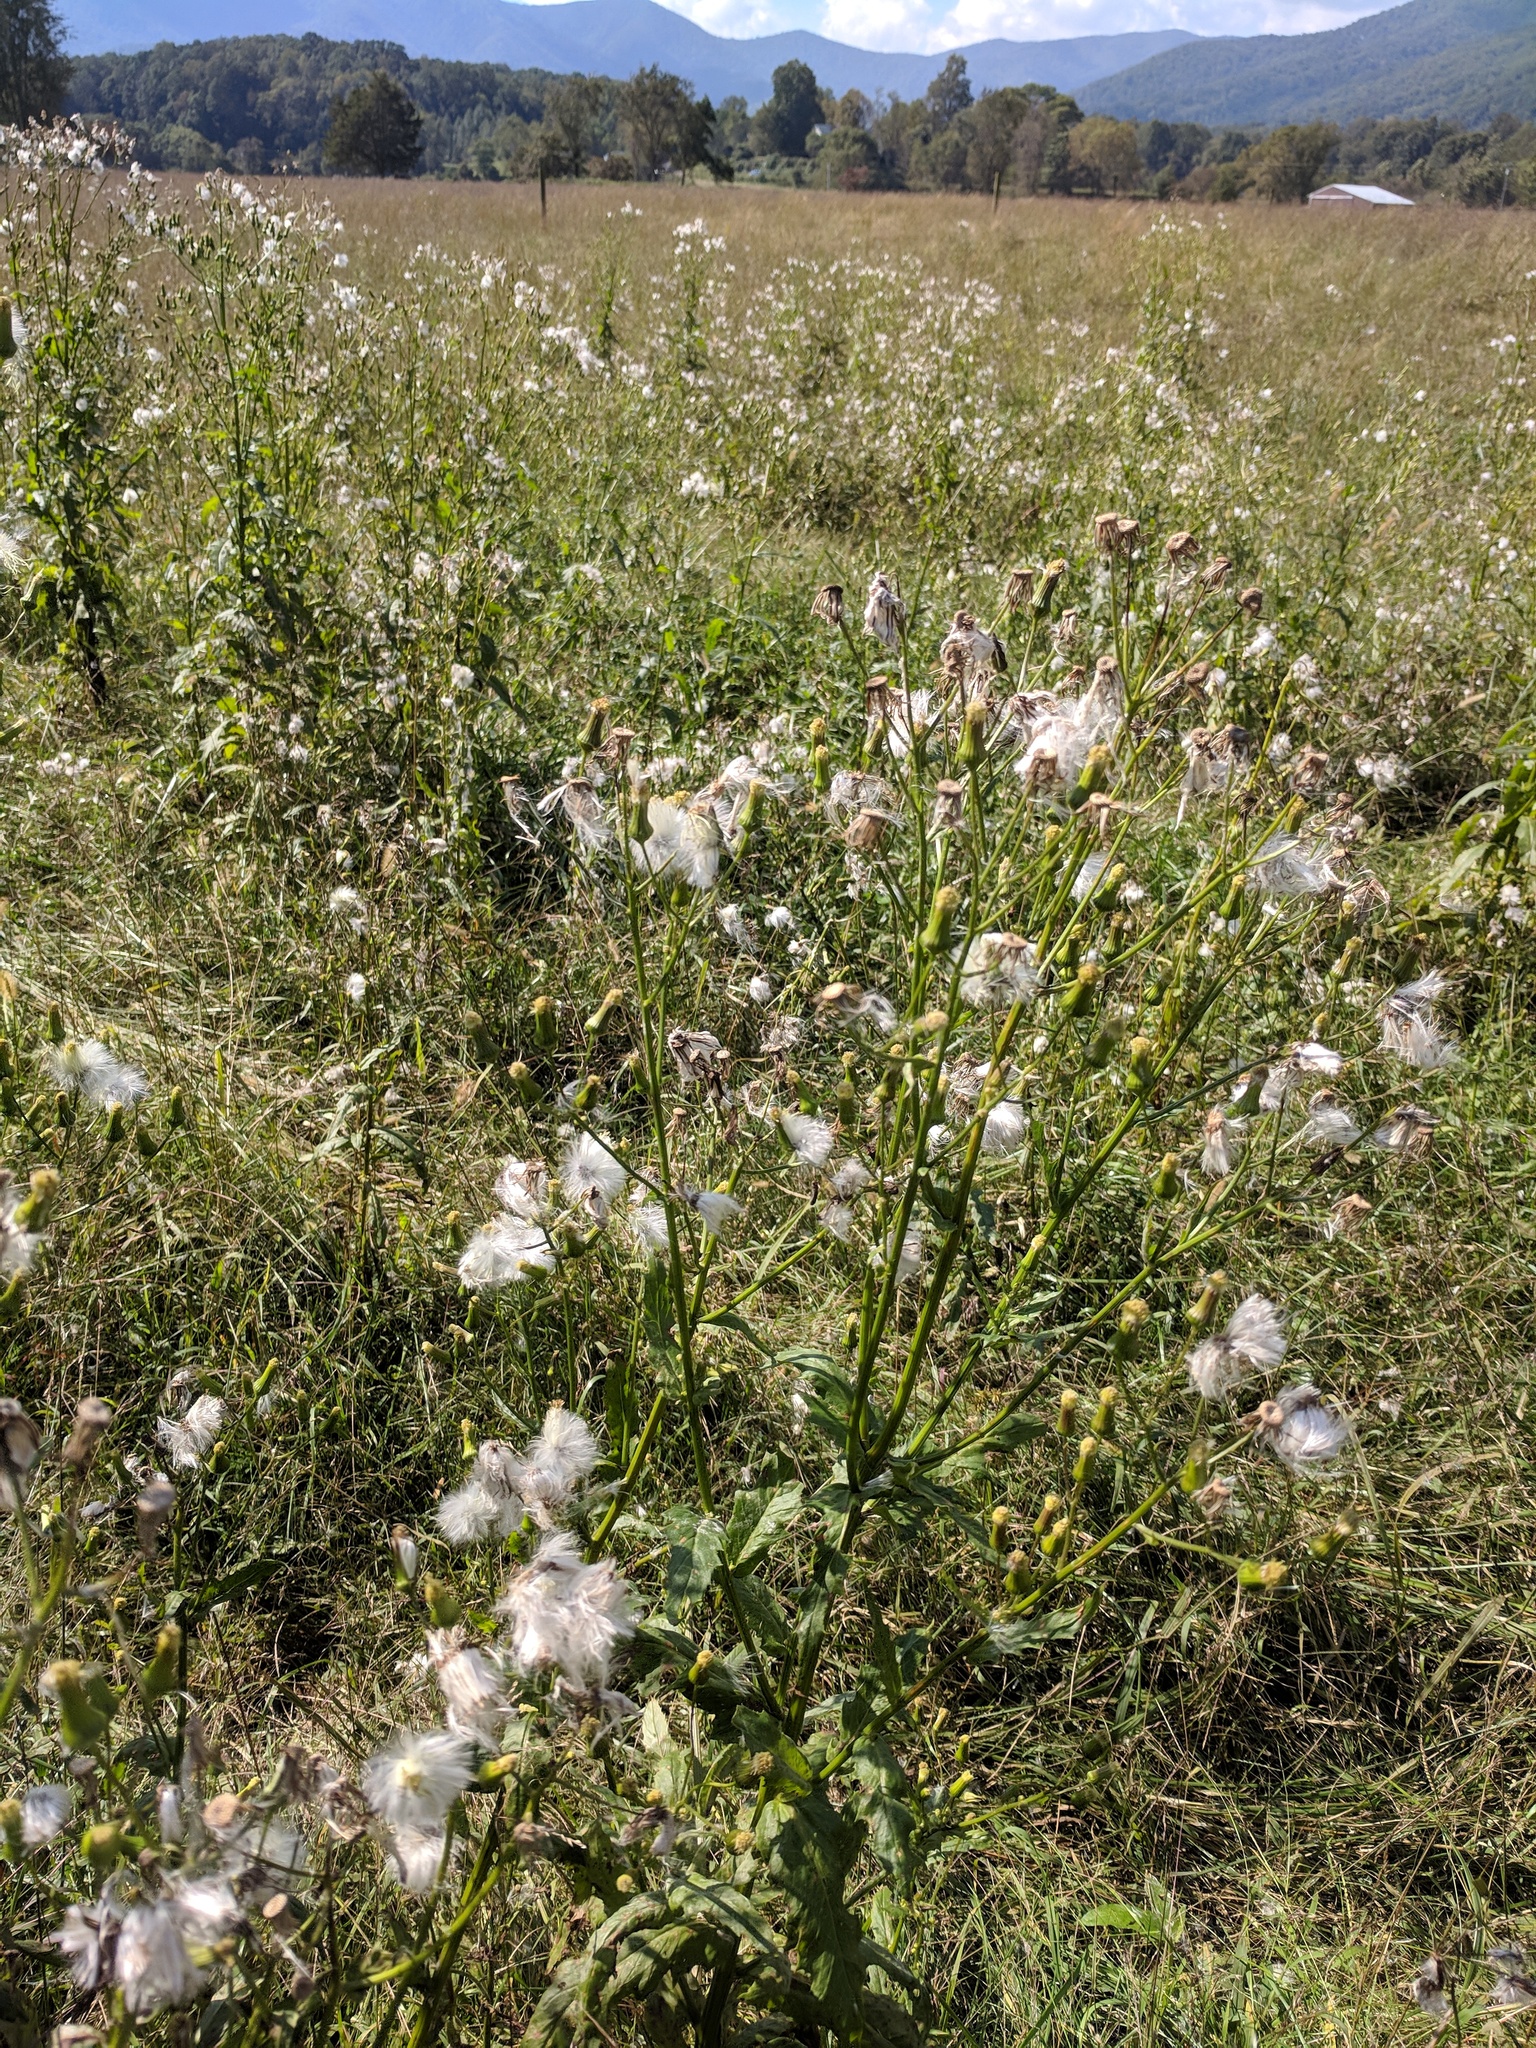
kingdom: Plantae
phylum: Tracheophyta
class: Magnoliopsida
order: Asterales
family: Asteraceae
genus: Erechtites
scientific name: Erechtites hieraciifolius
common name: American burnweed
